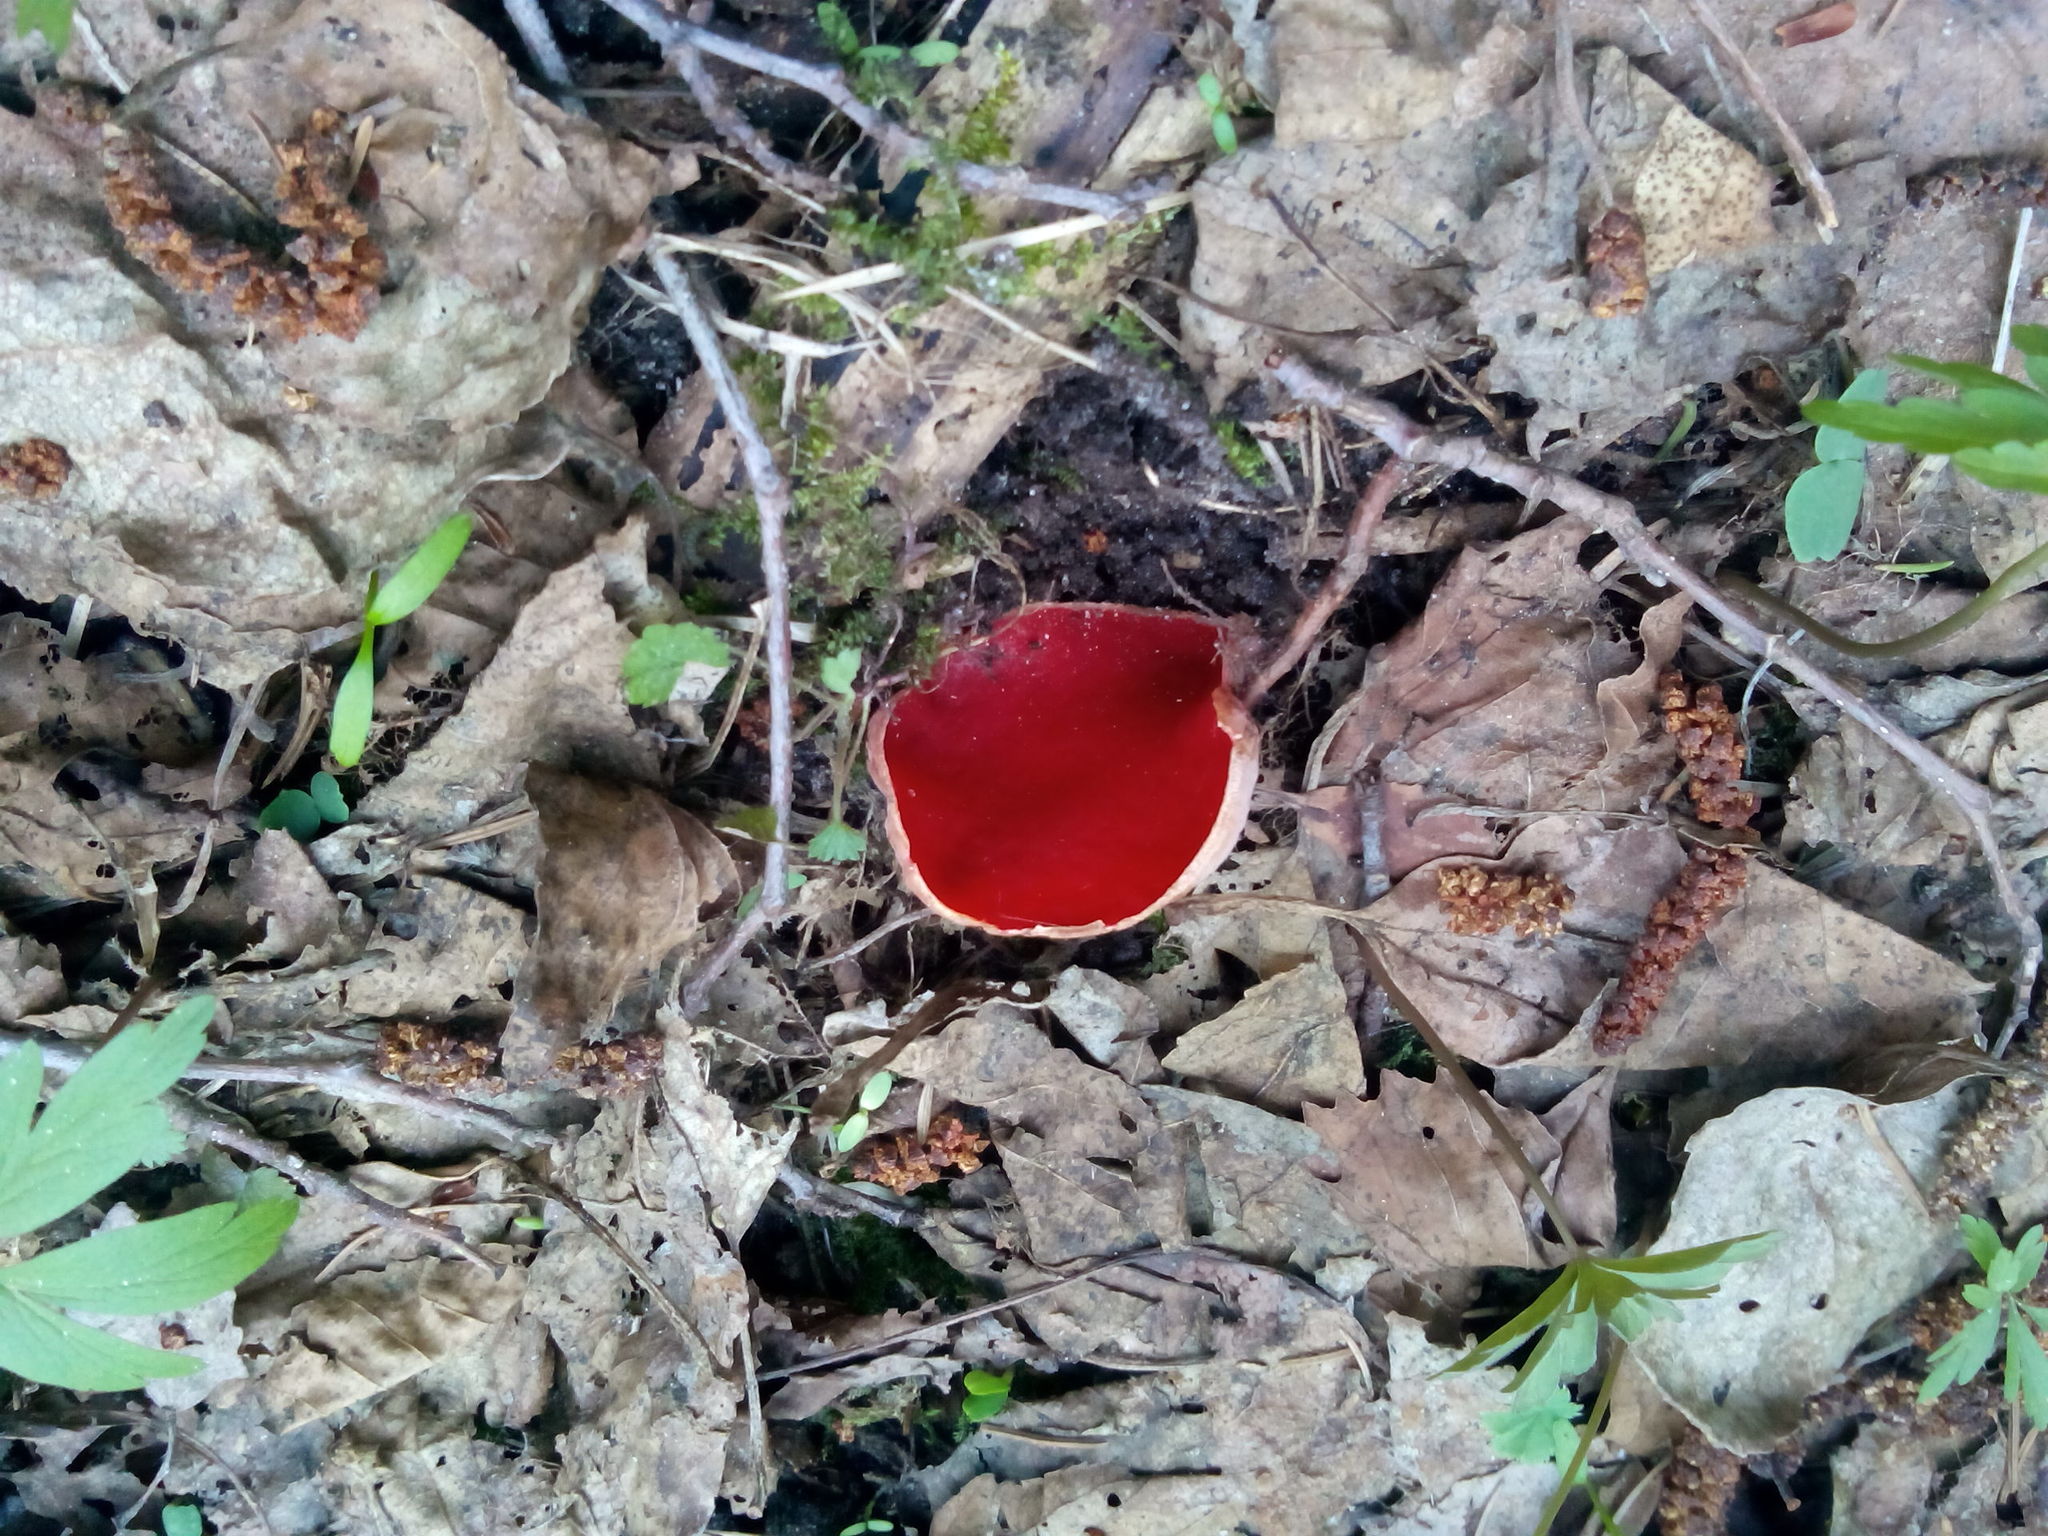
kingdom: Fungi
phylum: Ascomycota
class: Pezizomycetes
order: Pezizales
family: Sarcoscyphaceae
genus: Sarcoscypha
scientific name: Sarcoscypha austriaca
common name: Scarlet elfcup
